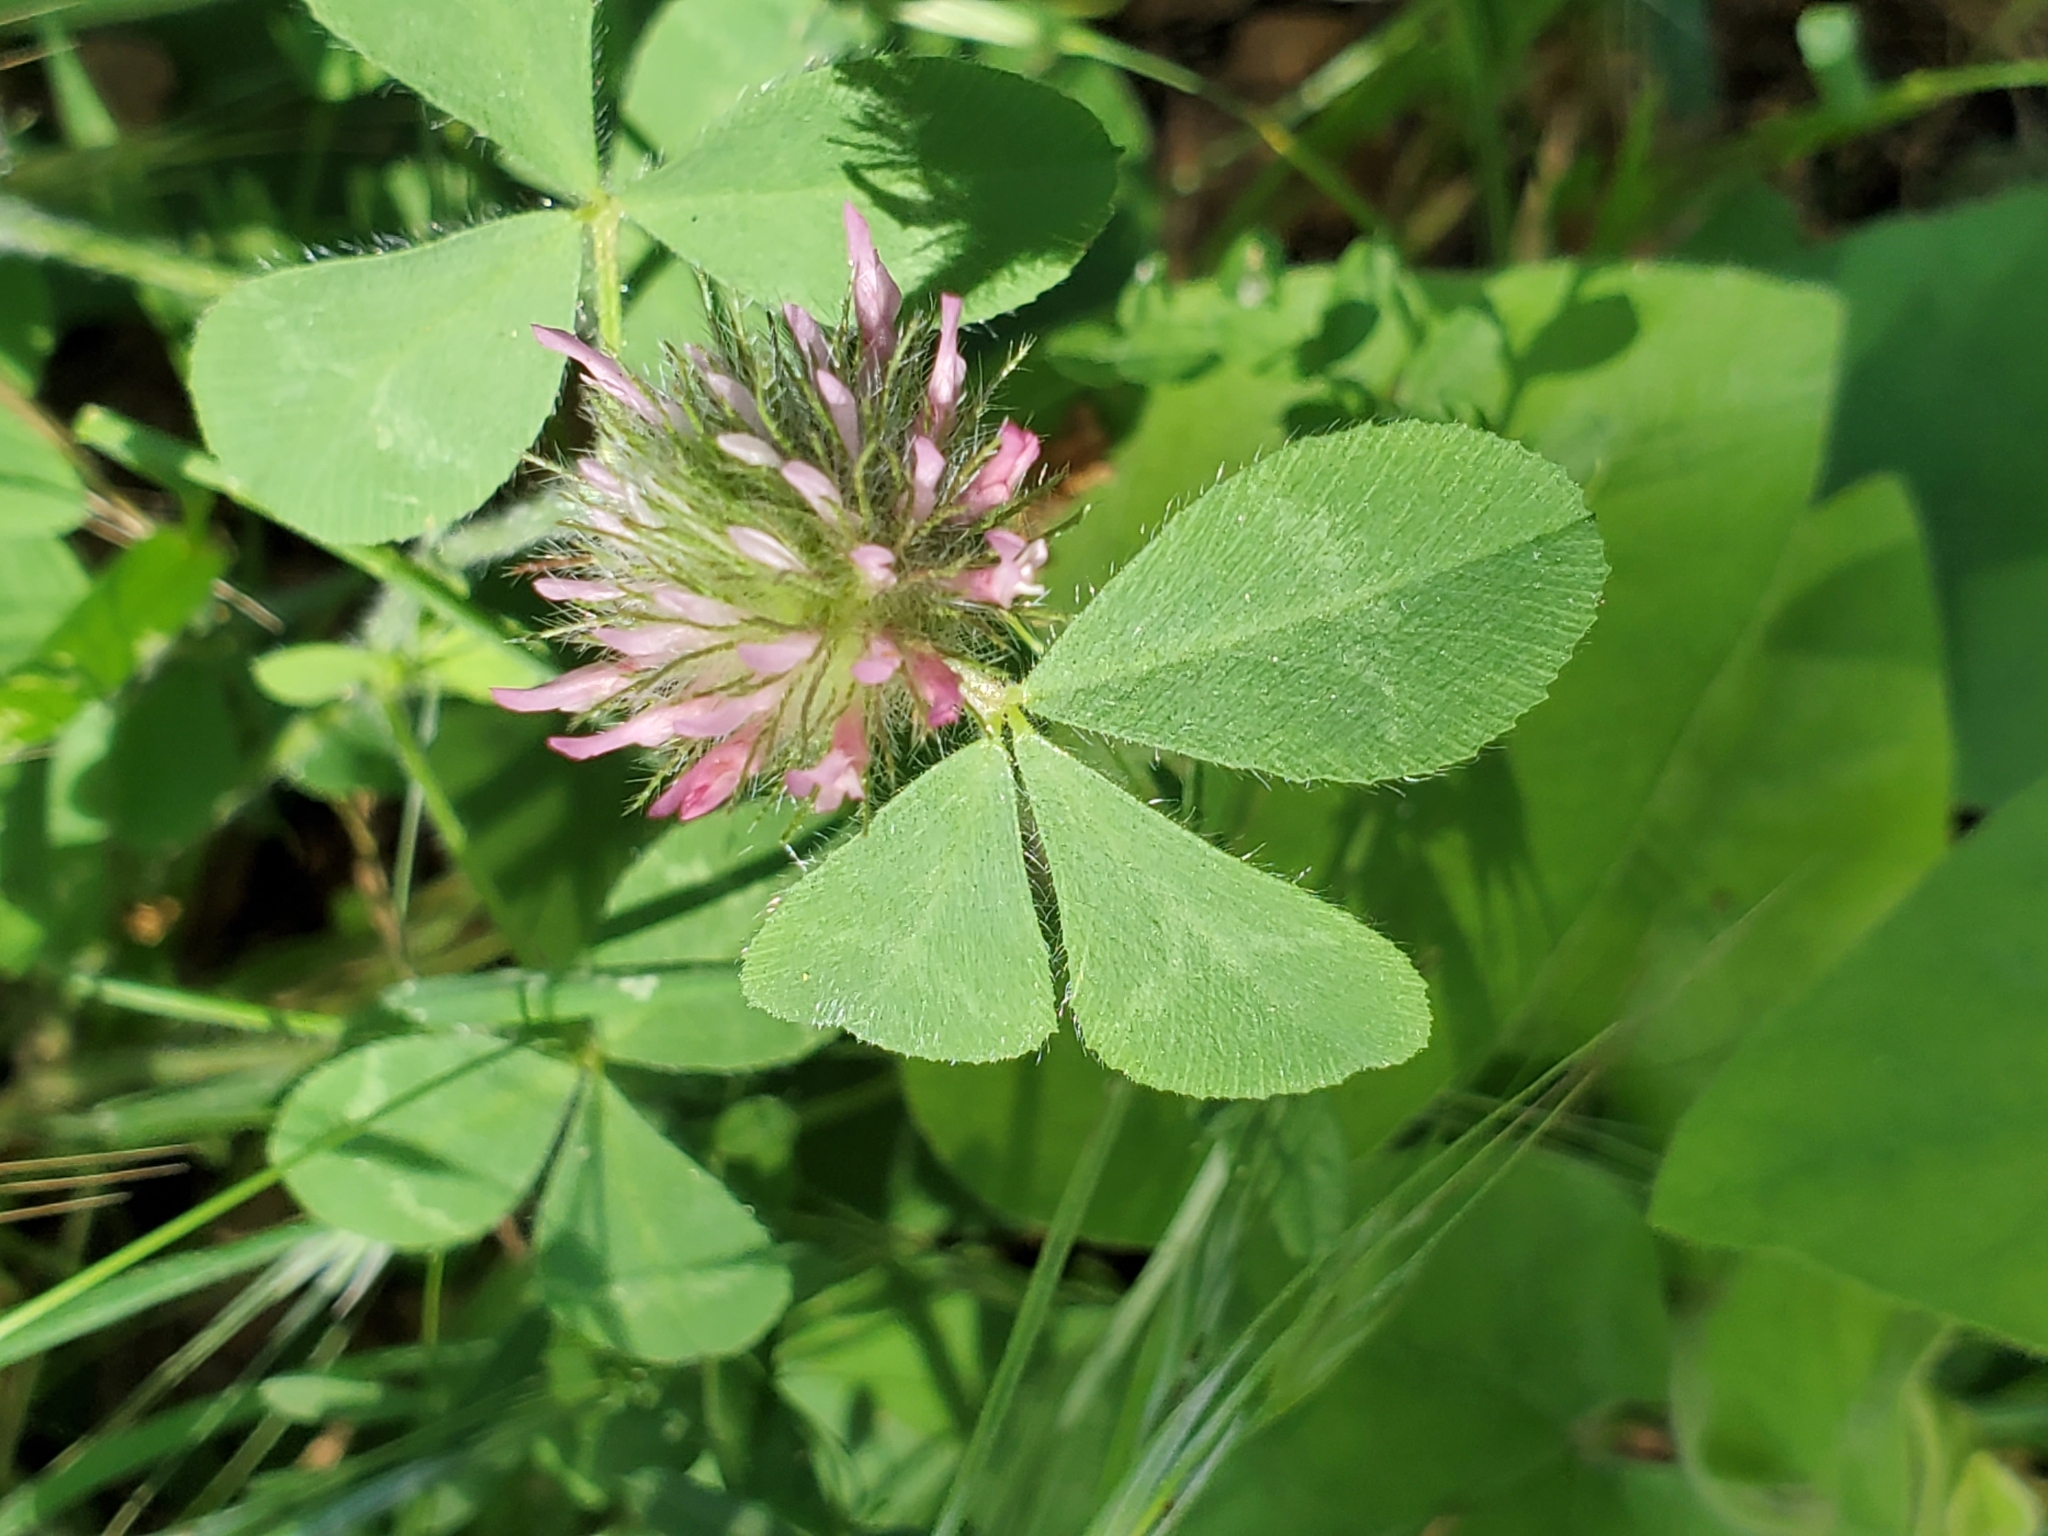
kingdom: Plantae
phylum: Tracheophyta
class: Magnoliopsida
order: Fabales
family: Fabaceae
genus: Trifolium
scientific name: Trifolium hirtum
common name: Rose clover
